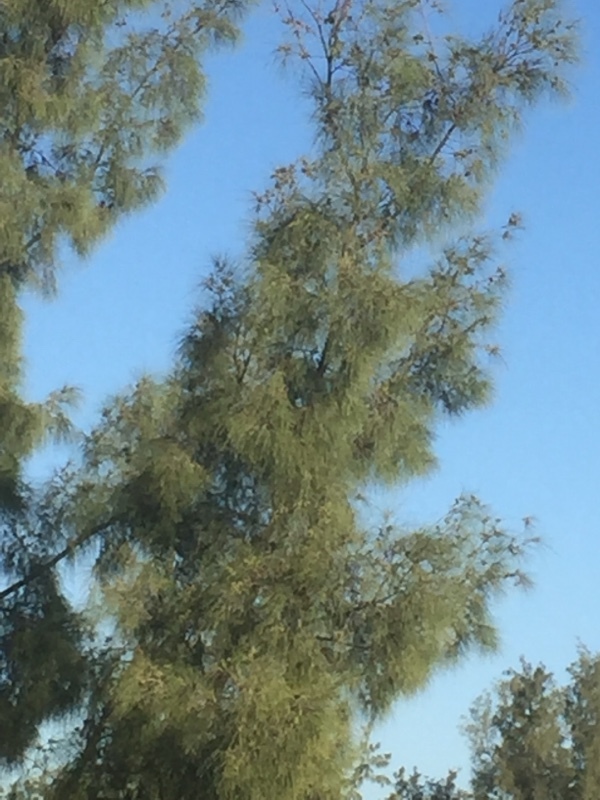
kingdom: Plantae
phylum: Tracheophyta
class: Pinopsida
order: Pinales
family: Pinaceae
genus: Pinus
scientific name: Pinus canariensis
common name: Canary islands pine
